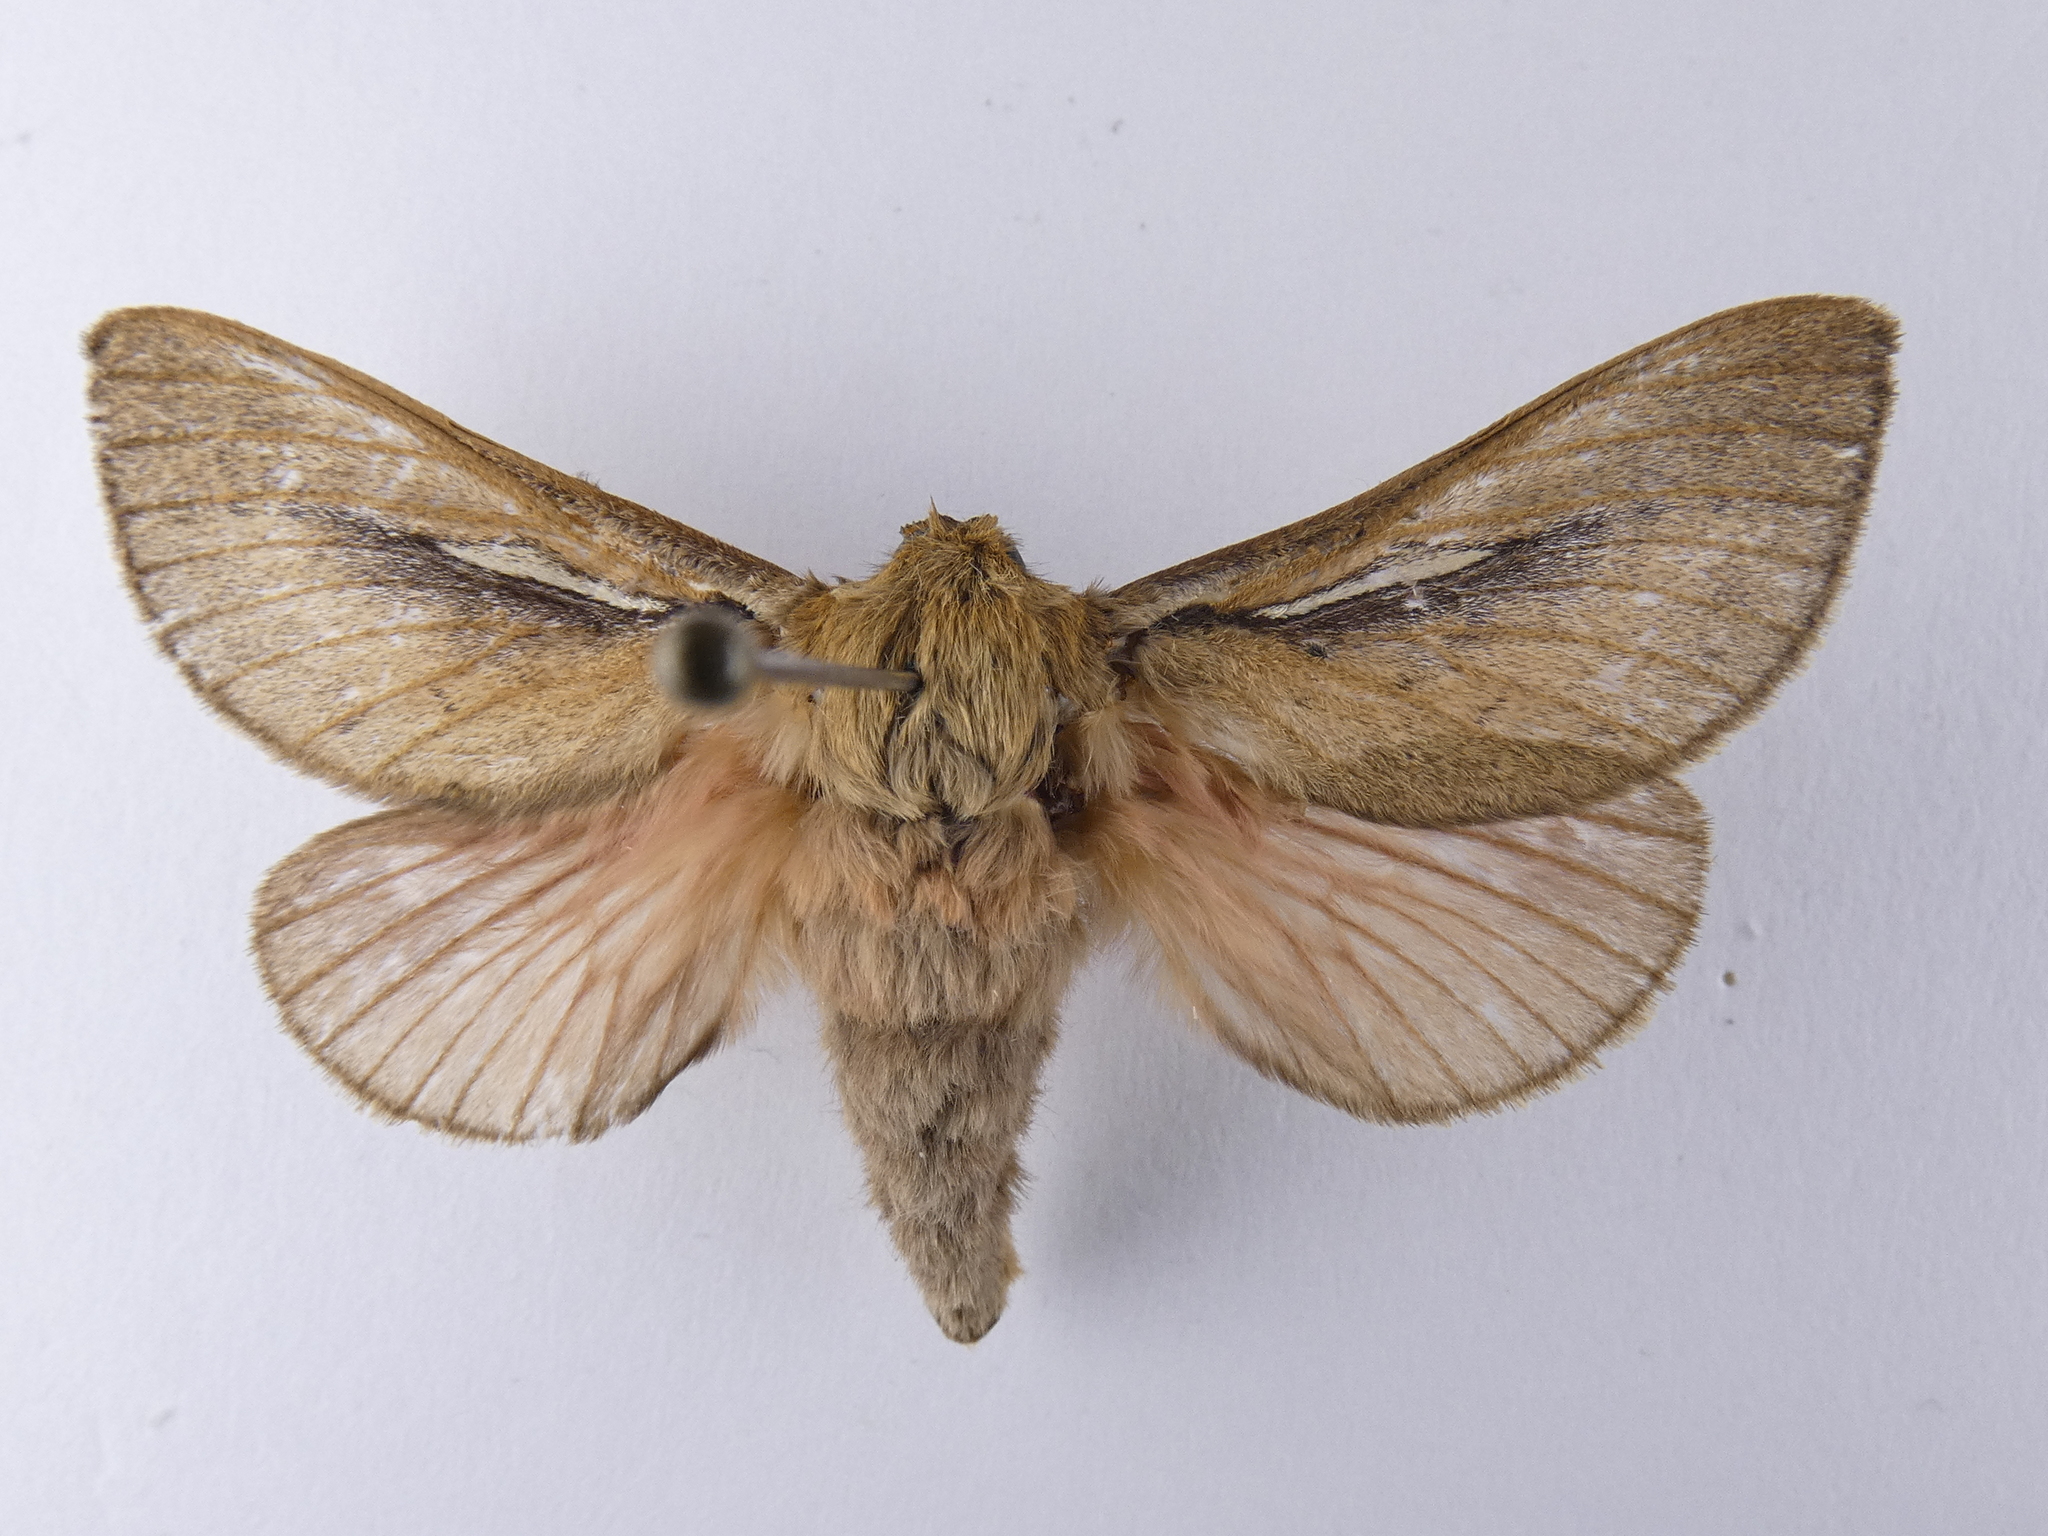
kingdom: Animalia
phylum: Arthropoda
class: Insecta
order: Lepidoptera
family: Hepialidae
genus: Wiseana
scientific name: Wiseana umbraculatus
